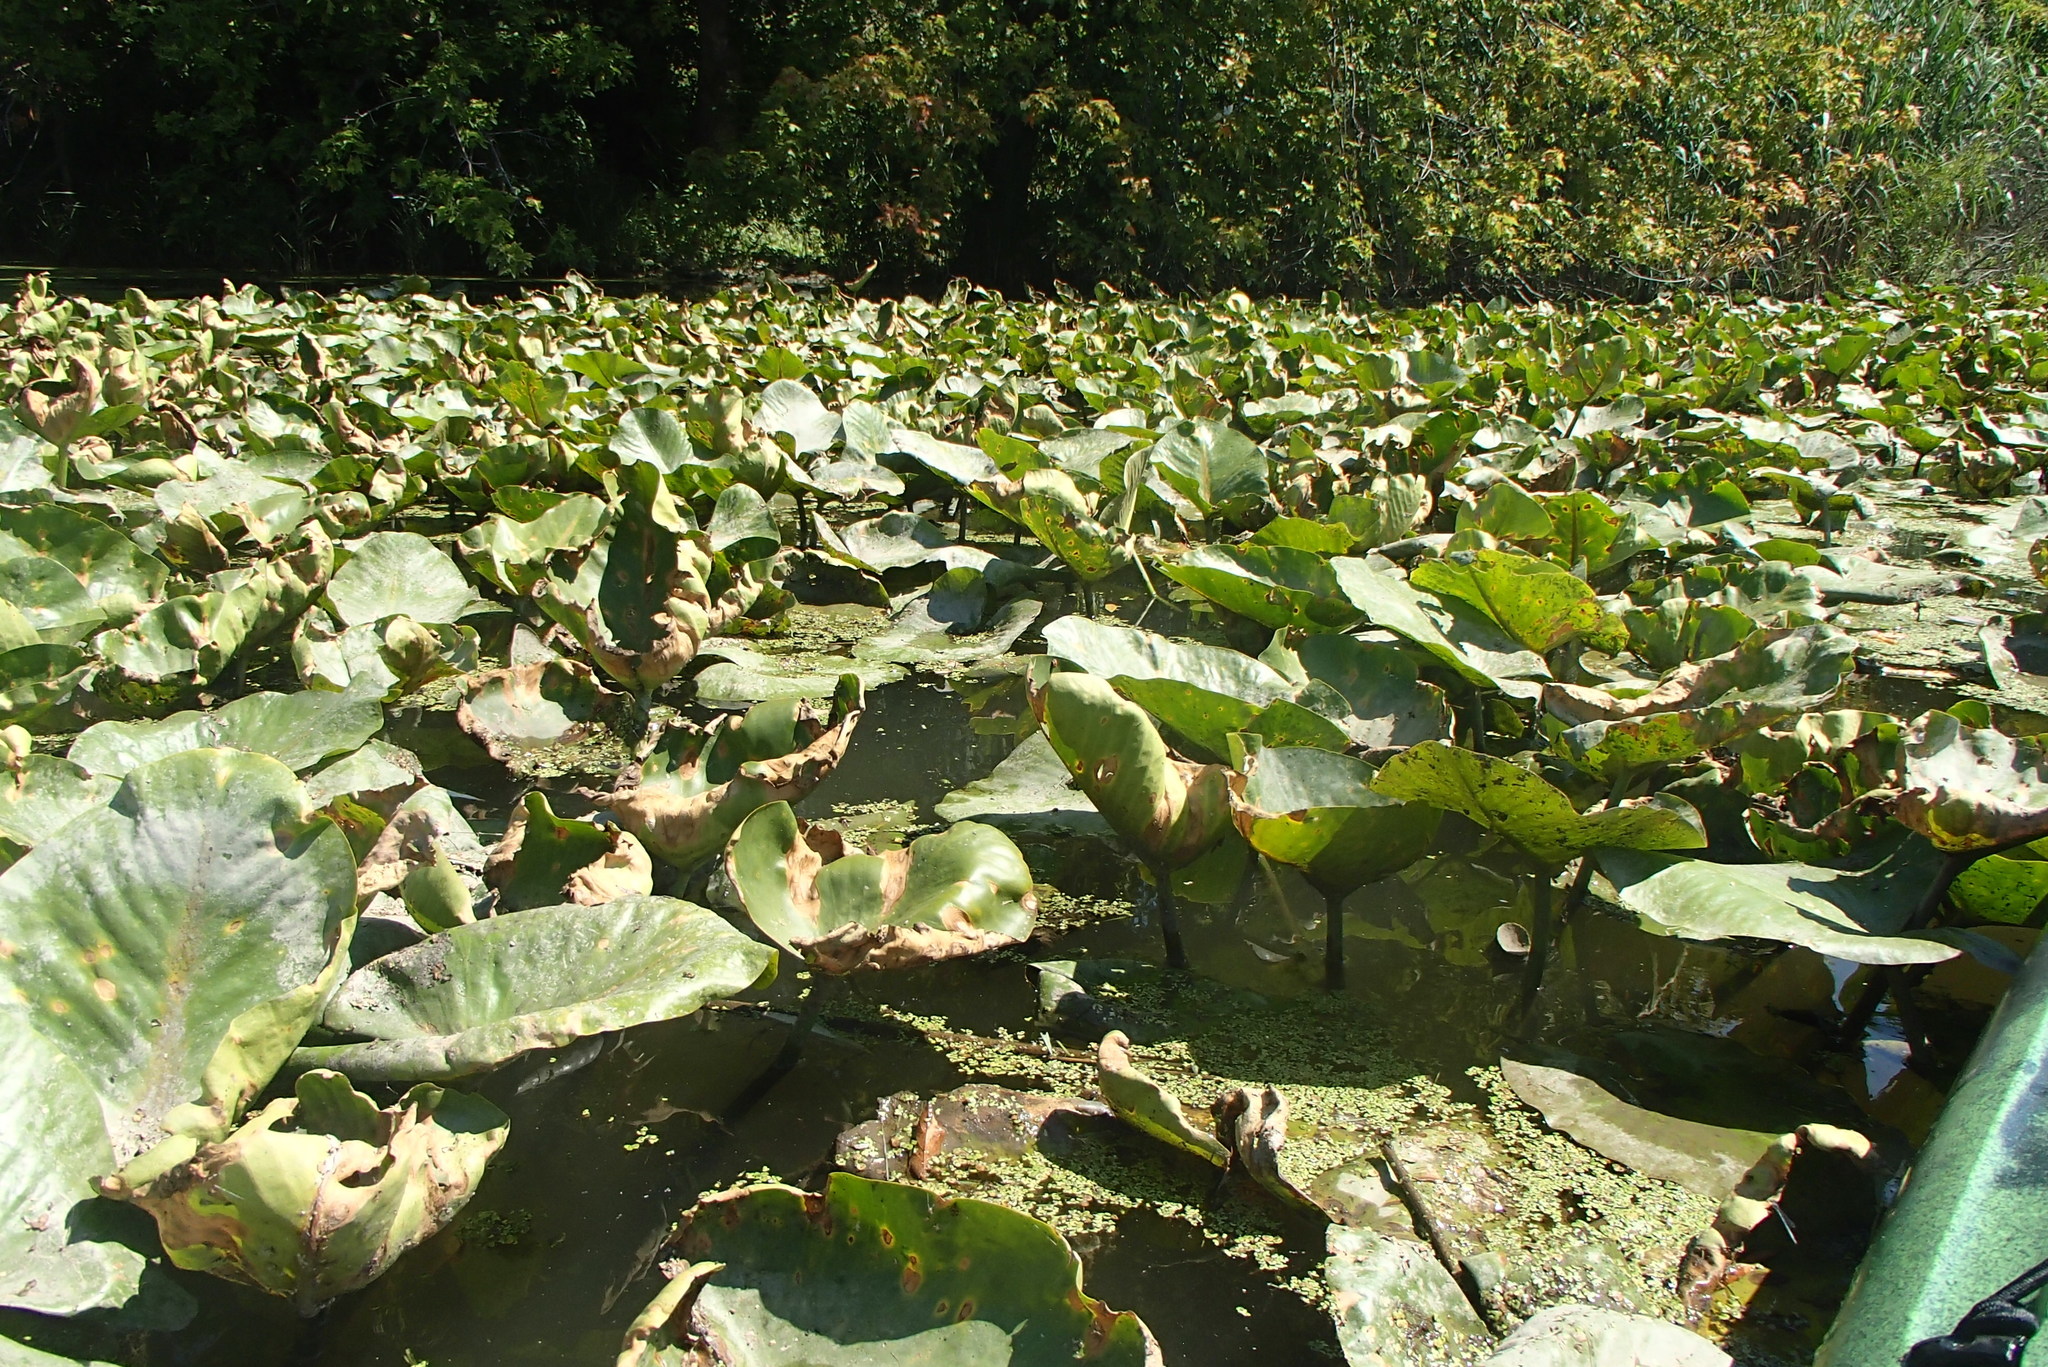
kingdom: Plantae
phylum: Tracheophyta
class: Magnoliopsida
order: Nymphaeales
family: Nymphaeaceae
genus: Nuphar
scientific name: Nuphar advena
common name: Spatter-dock
